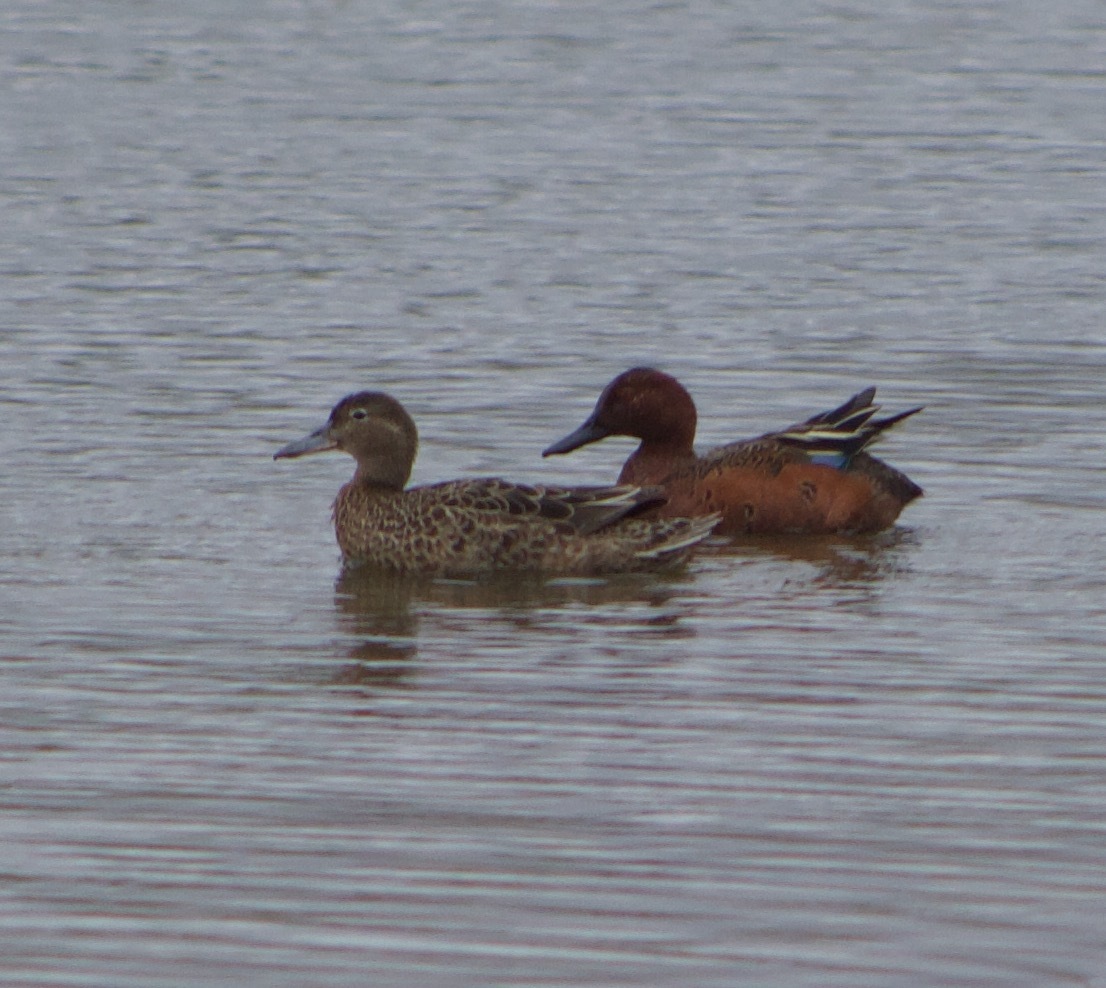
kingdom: Animalia
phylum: Chordata
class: Aves
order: Anseriformes
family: Anatidae
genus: Spatula
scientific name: Spatula cyanoptera
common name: Cinnamon teal
